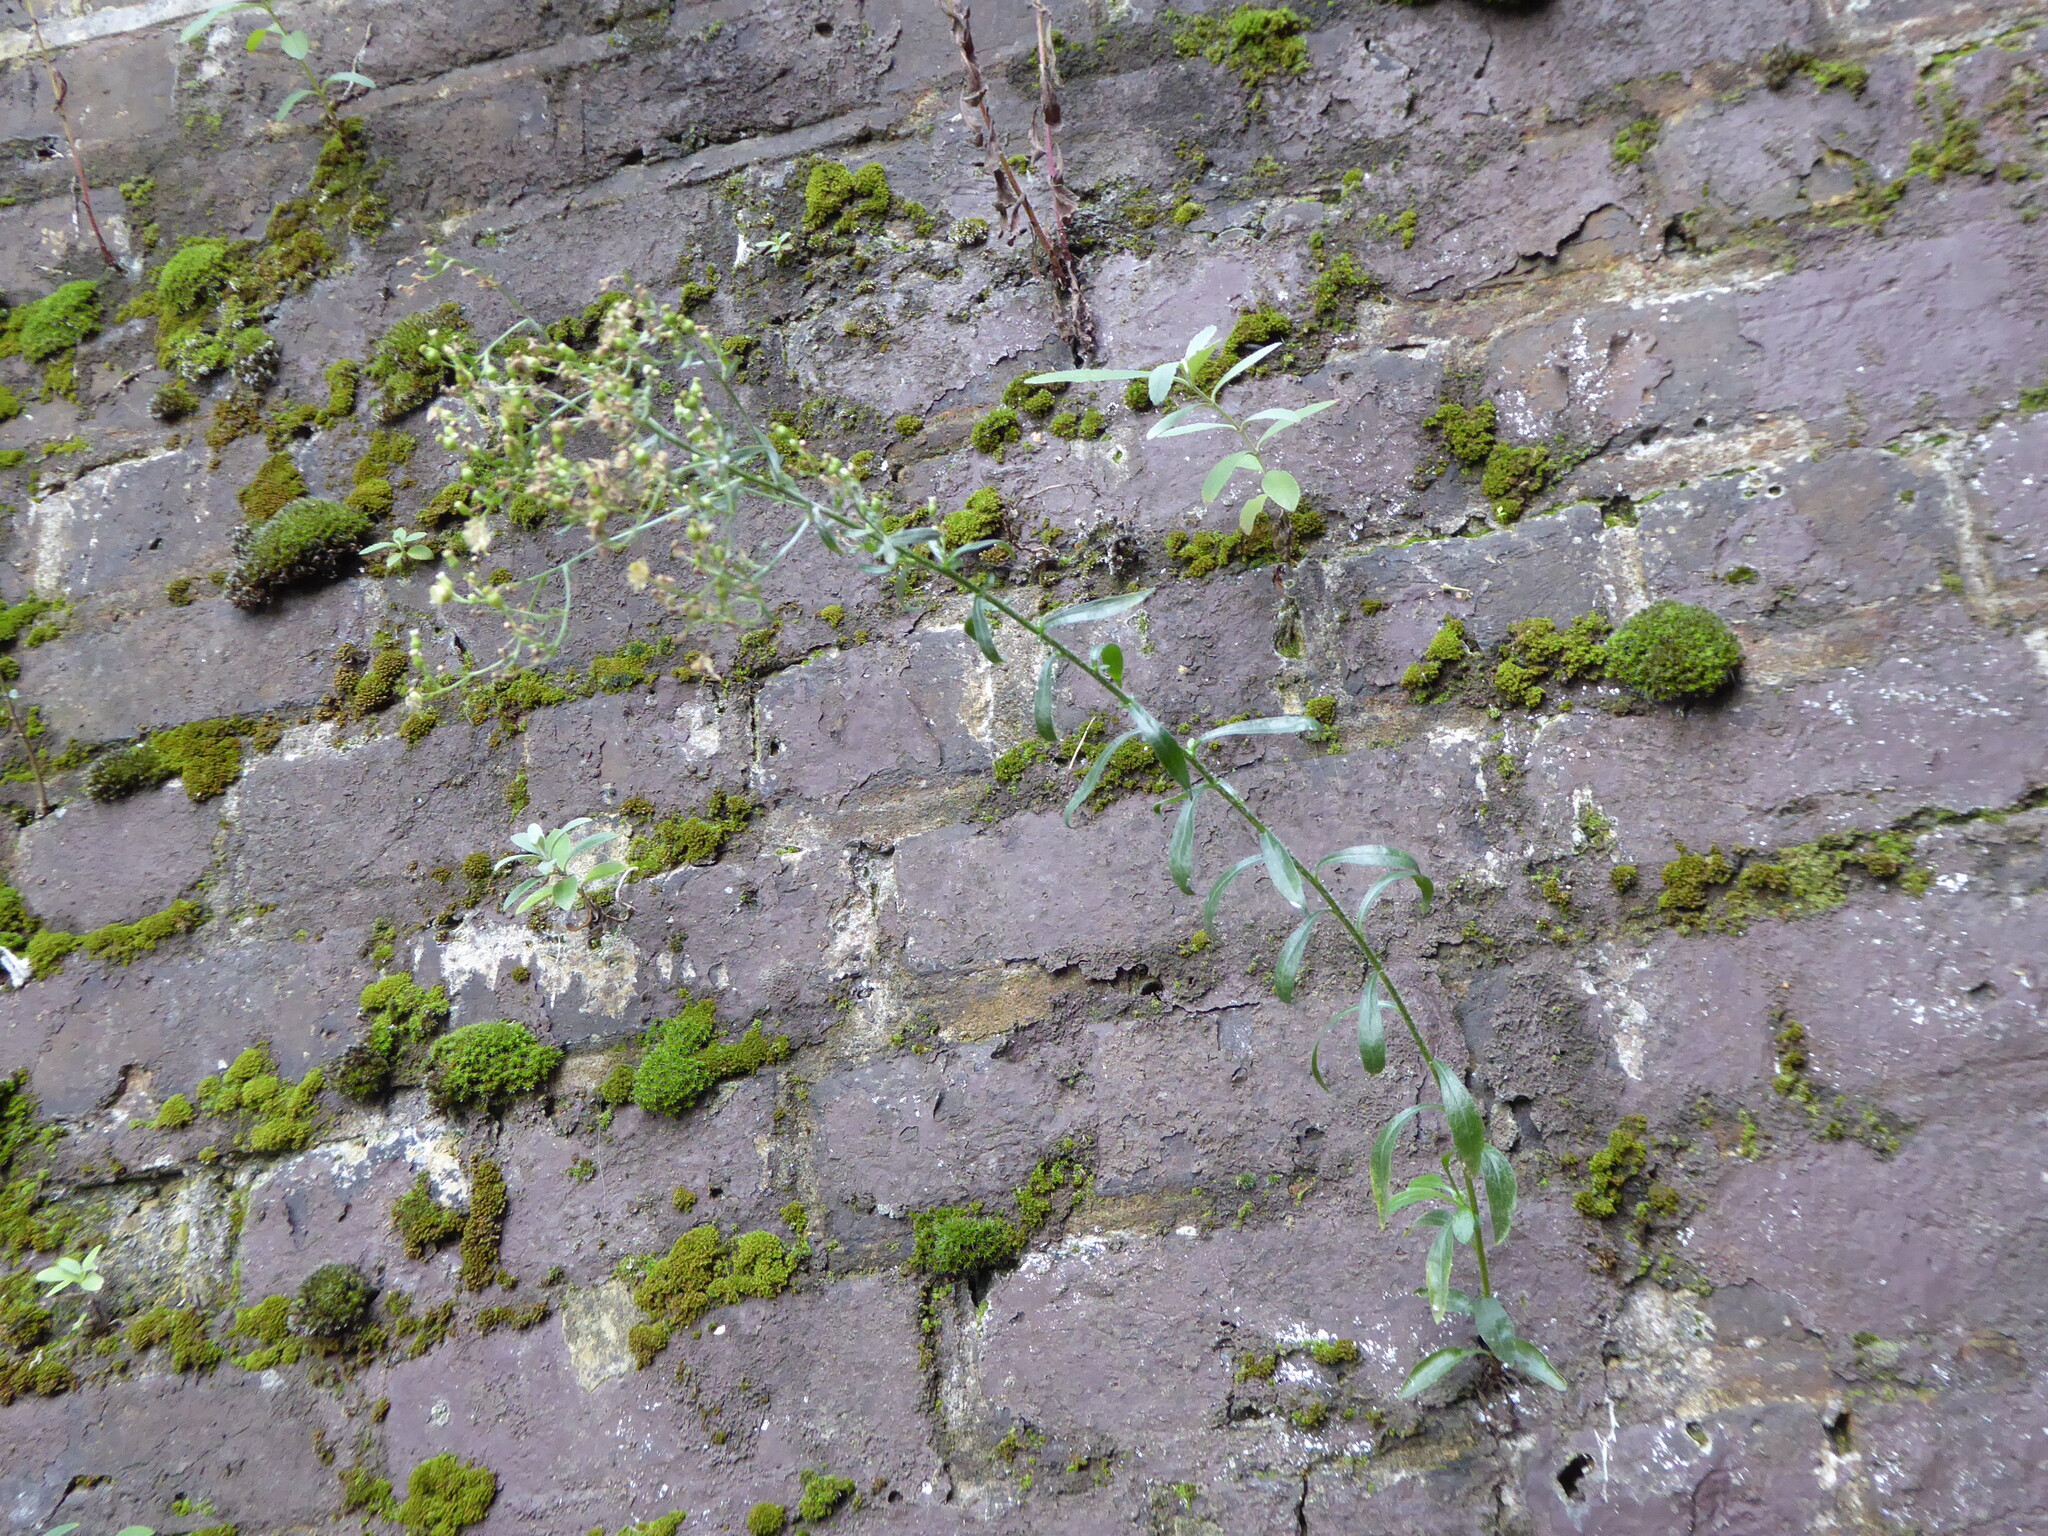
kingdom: Plantae
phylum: Tracheophyta
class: Magnoliopsida
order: Asterales
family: Asteraceae
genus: Erigeron
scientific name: Erigeron floribundus
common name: Bilbao fleabane
